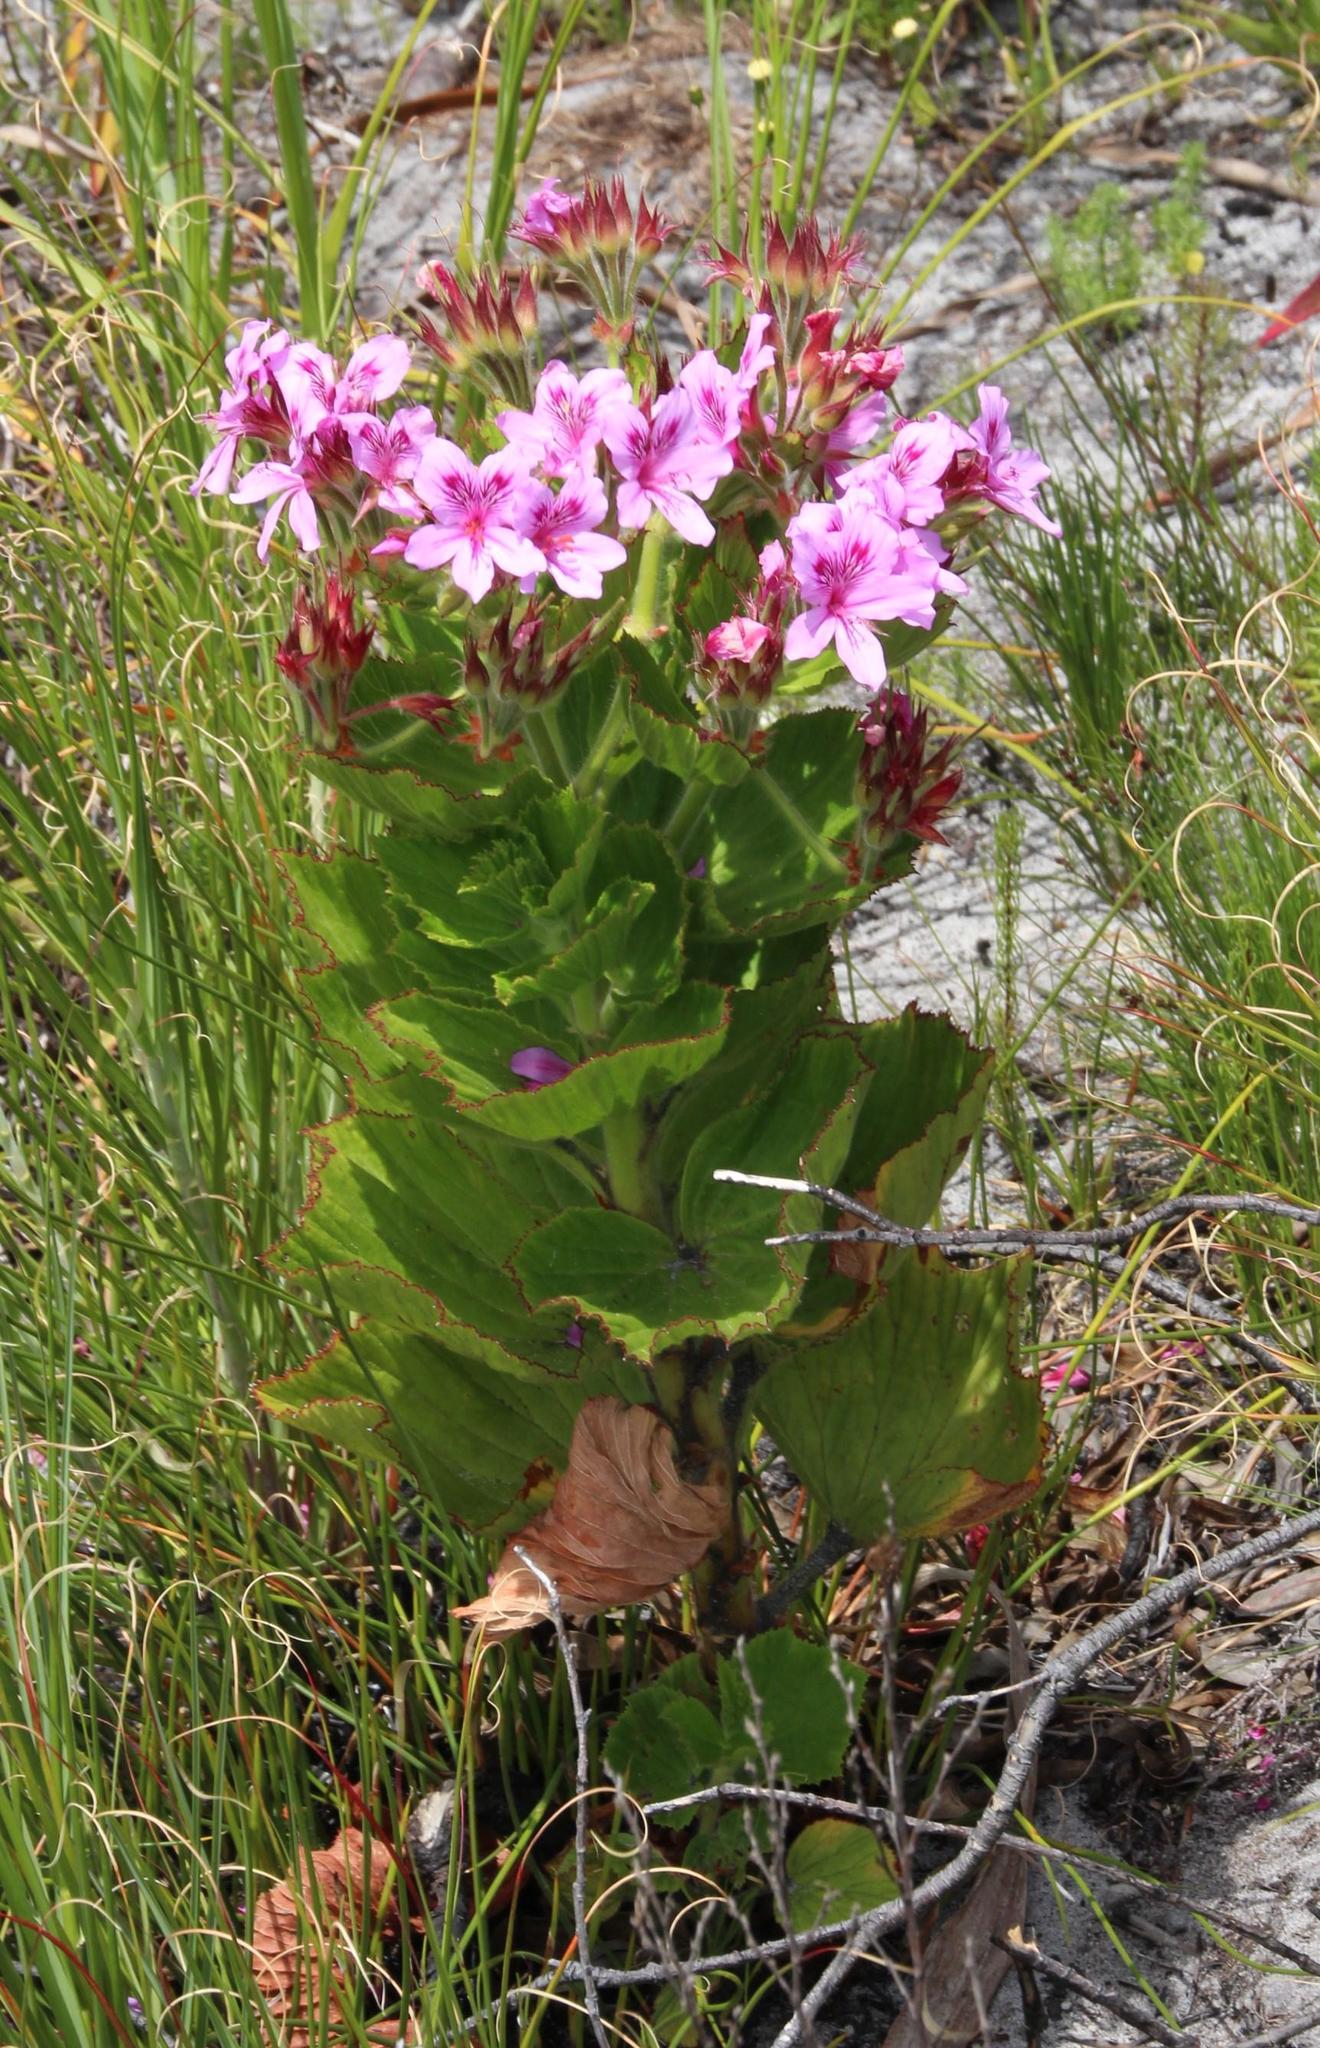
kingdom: Plantae
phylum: Tracheophyta
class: Magnoliopsida
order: Geraniales
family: Geraniaceae
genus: Pelargonium
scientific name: Pelargonium cucullatum
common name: Tree pelargonium
